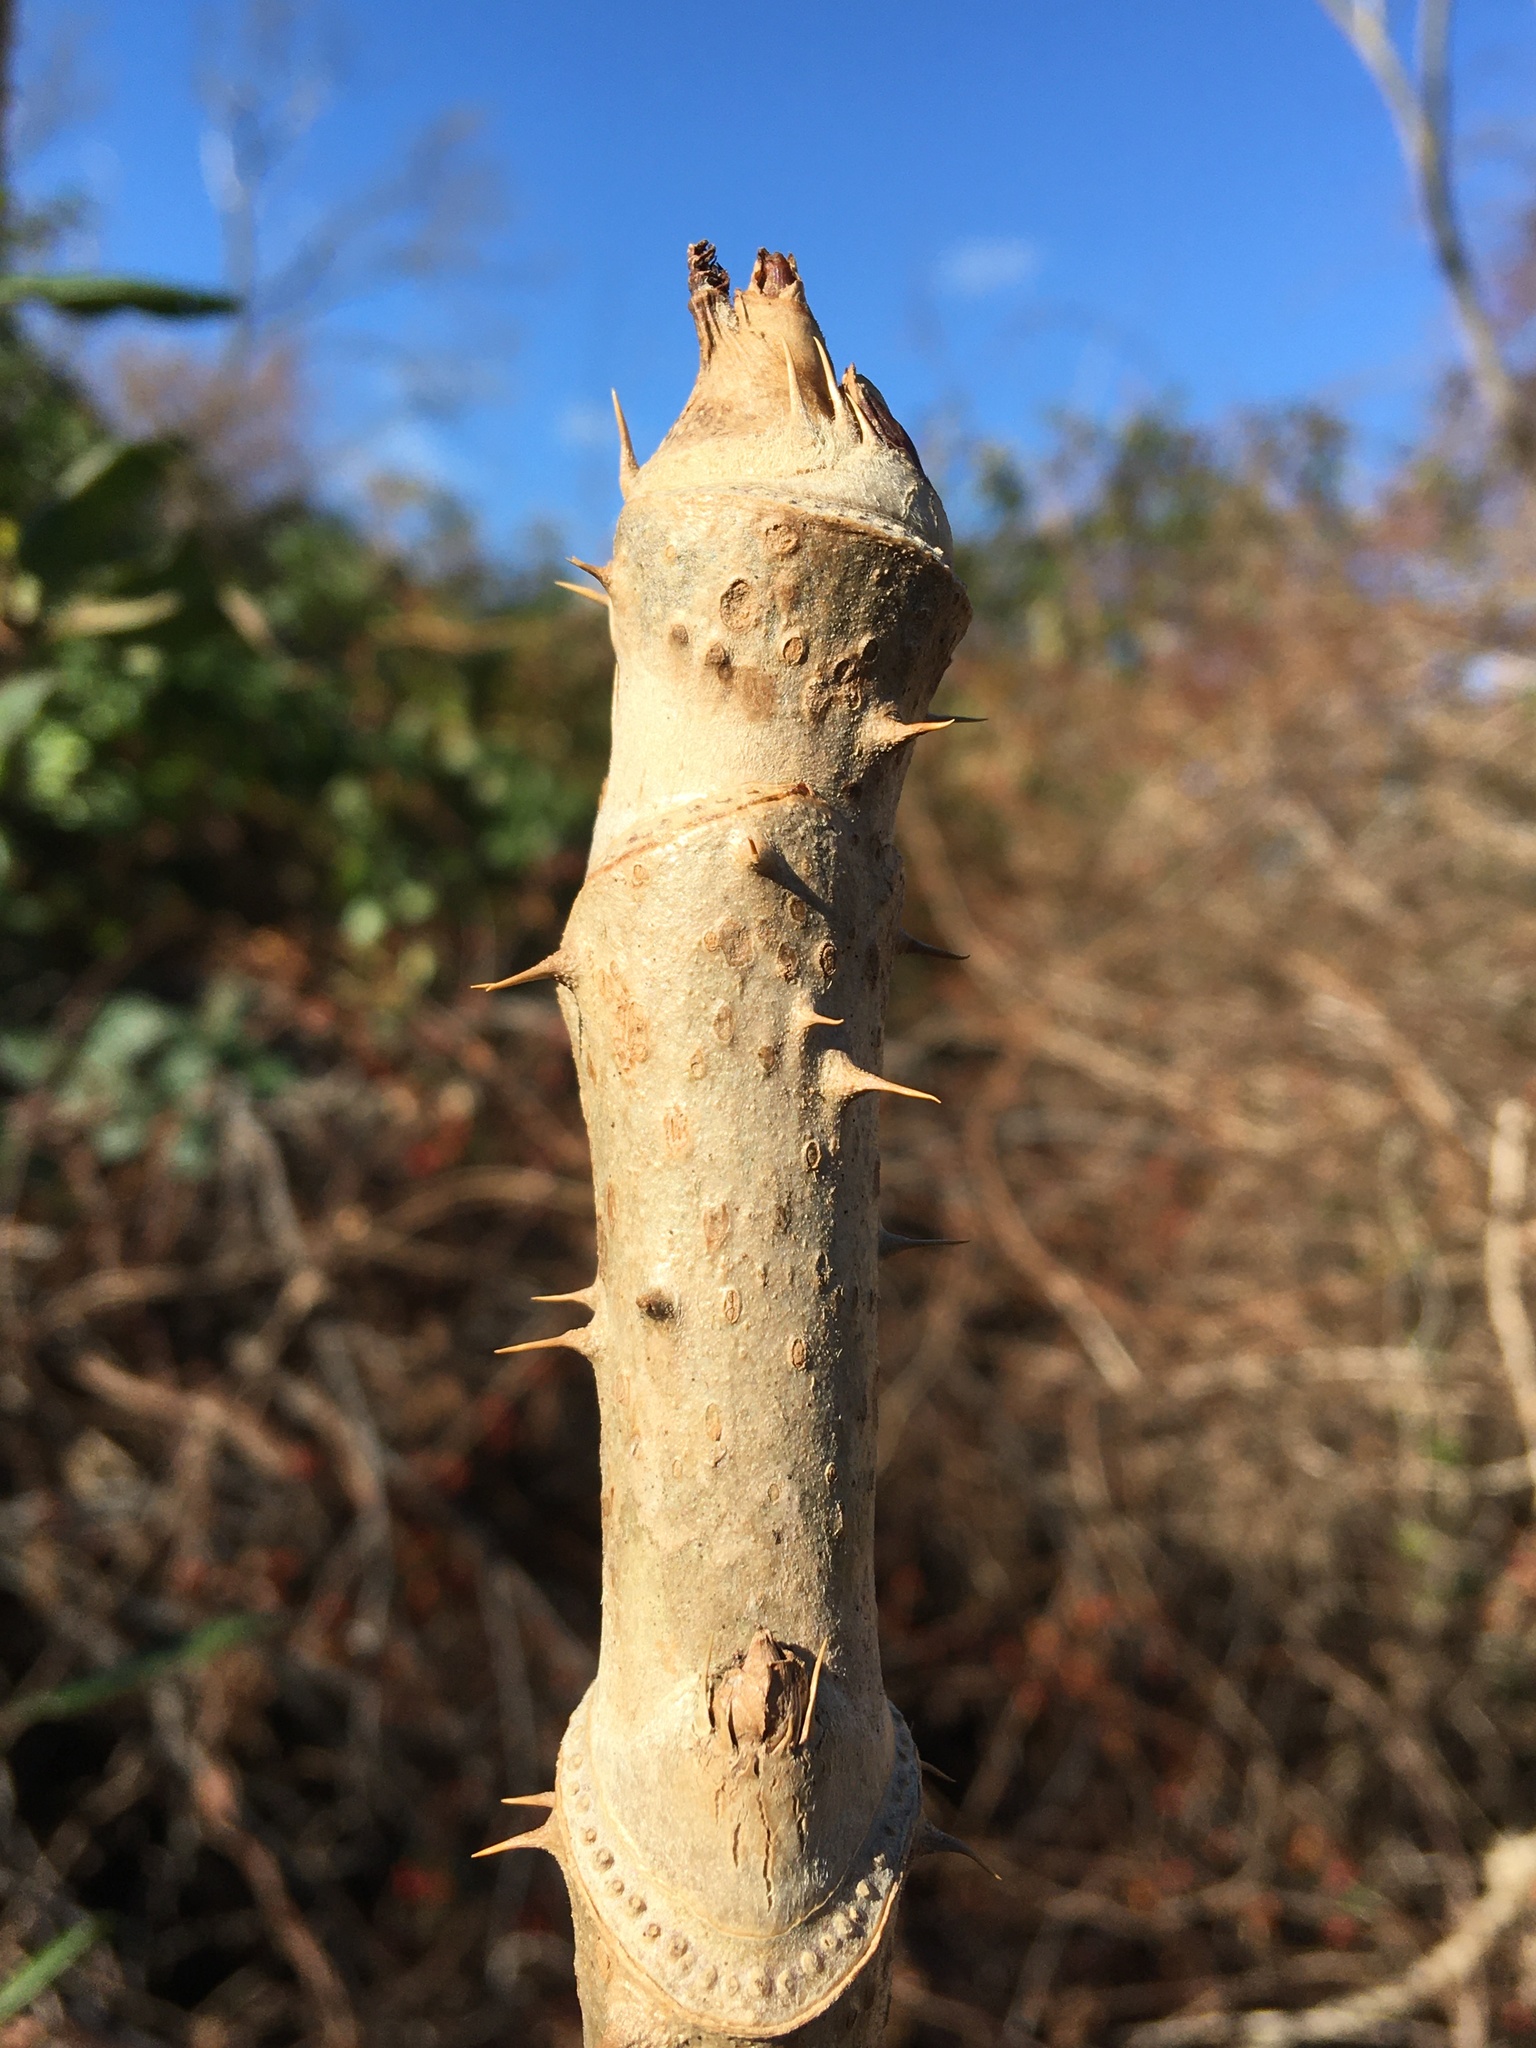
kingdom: Plantae
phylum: Tracheophyta
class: Magnoliopsida
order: Apiales
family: Araliaceae
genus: Aralia
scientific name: Aralia elata
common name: Japanese angelica-tree
